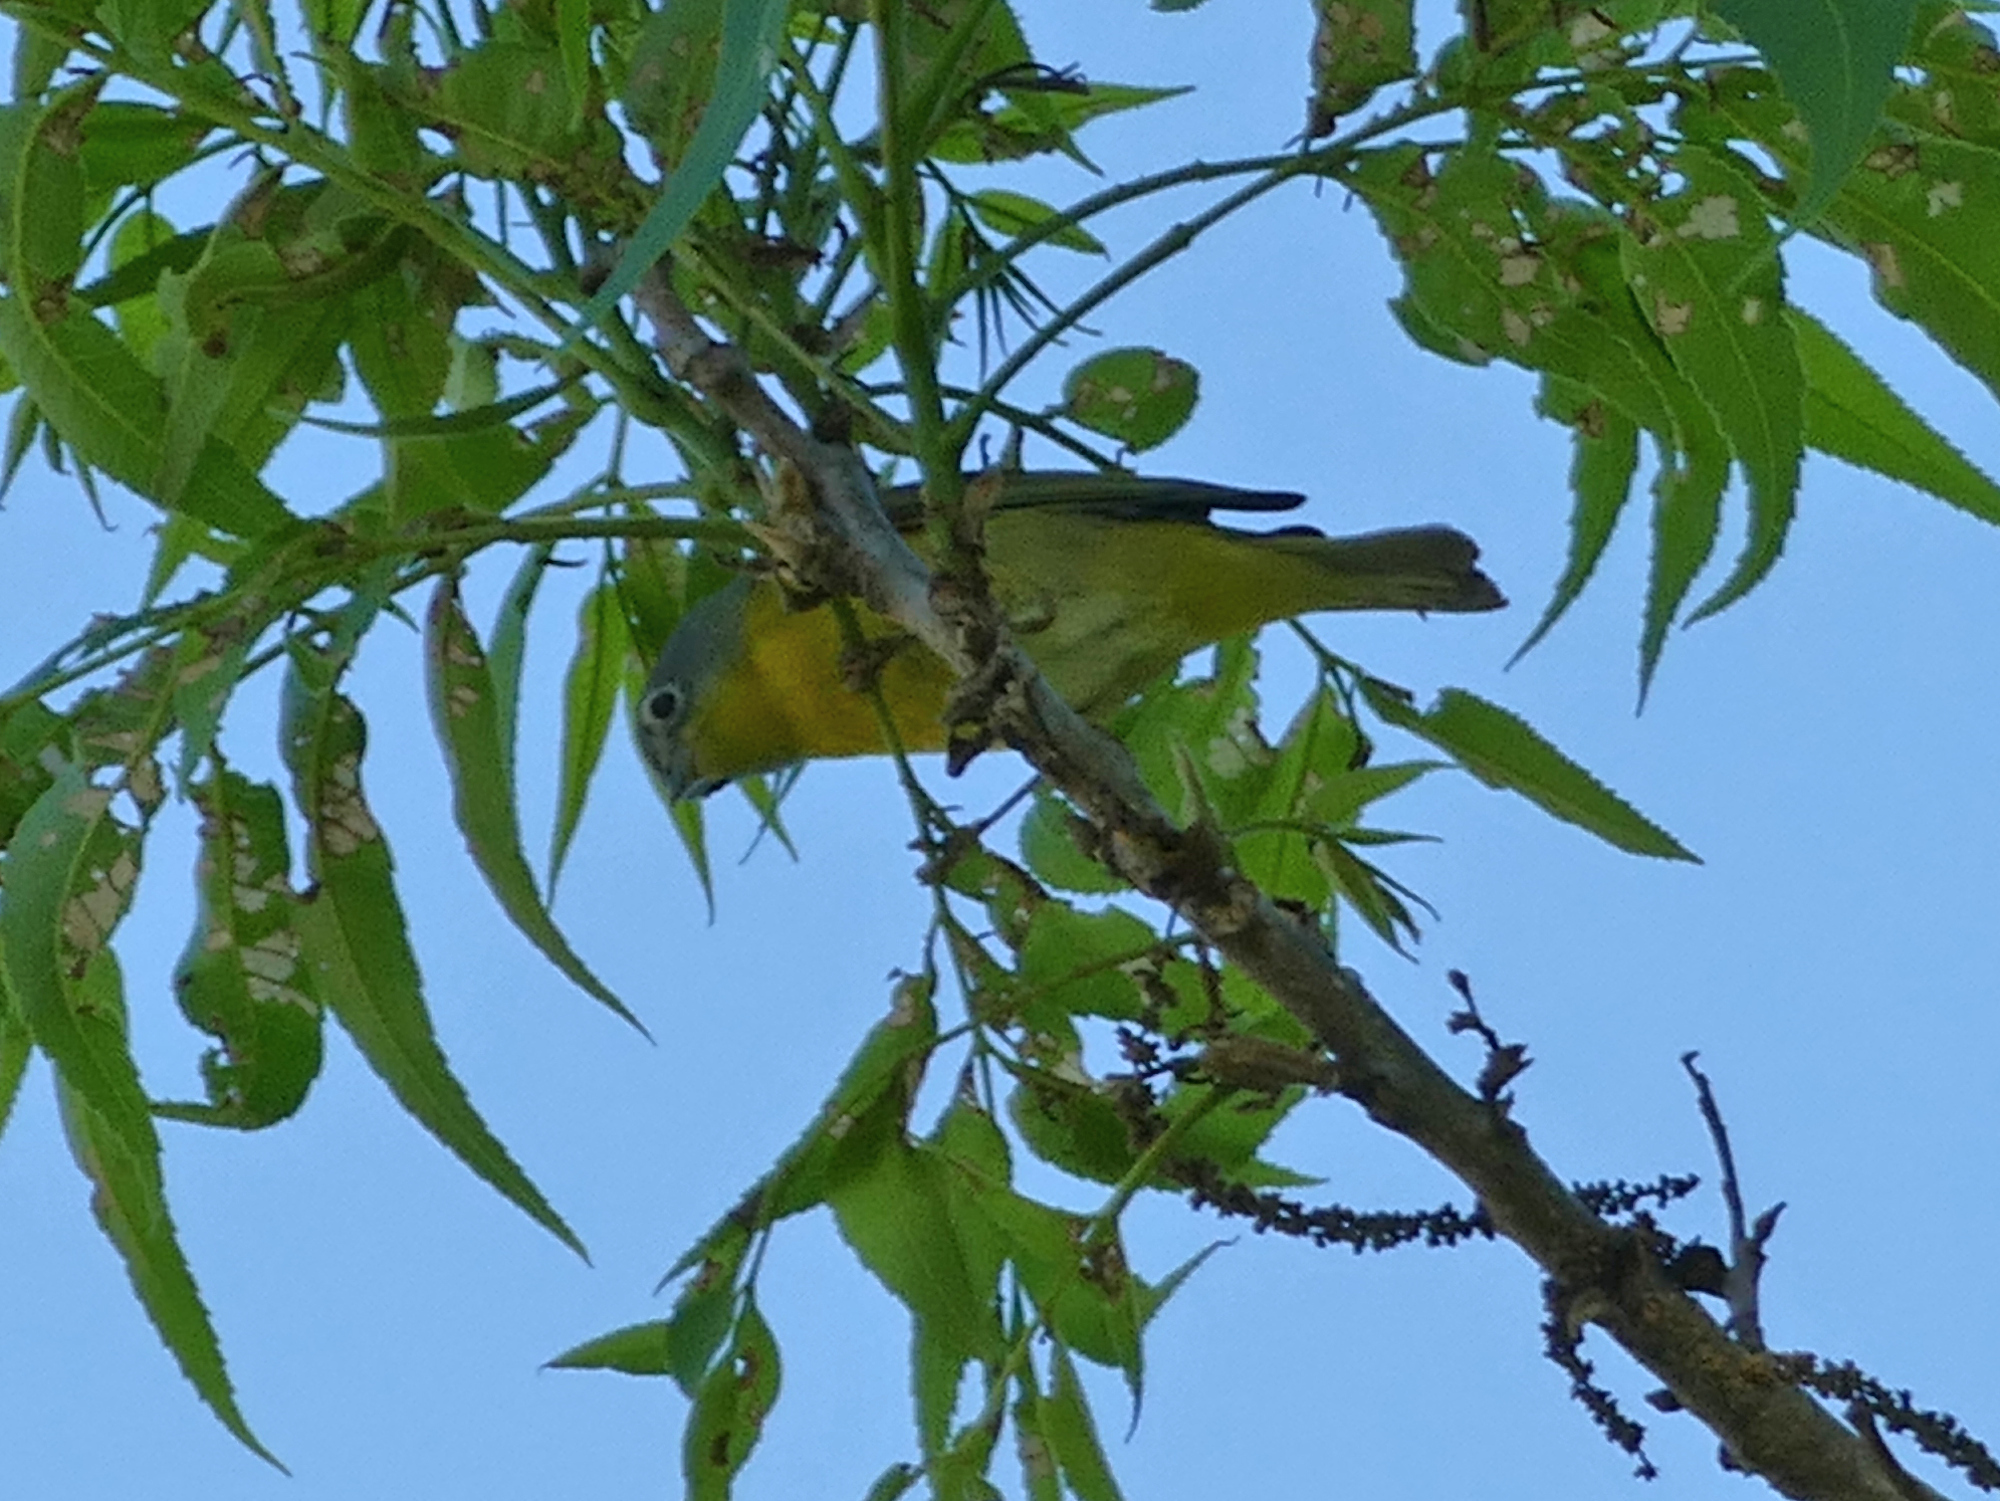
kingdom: Animalia
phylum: Chordata
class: Aves
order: Passeriformes
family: Parulidae
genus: Leiothlypis
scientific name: Leiothlypis ruficapilla
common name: Nashville warbler
